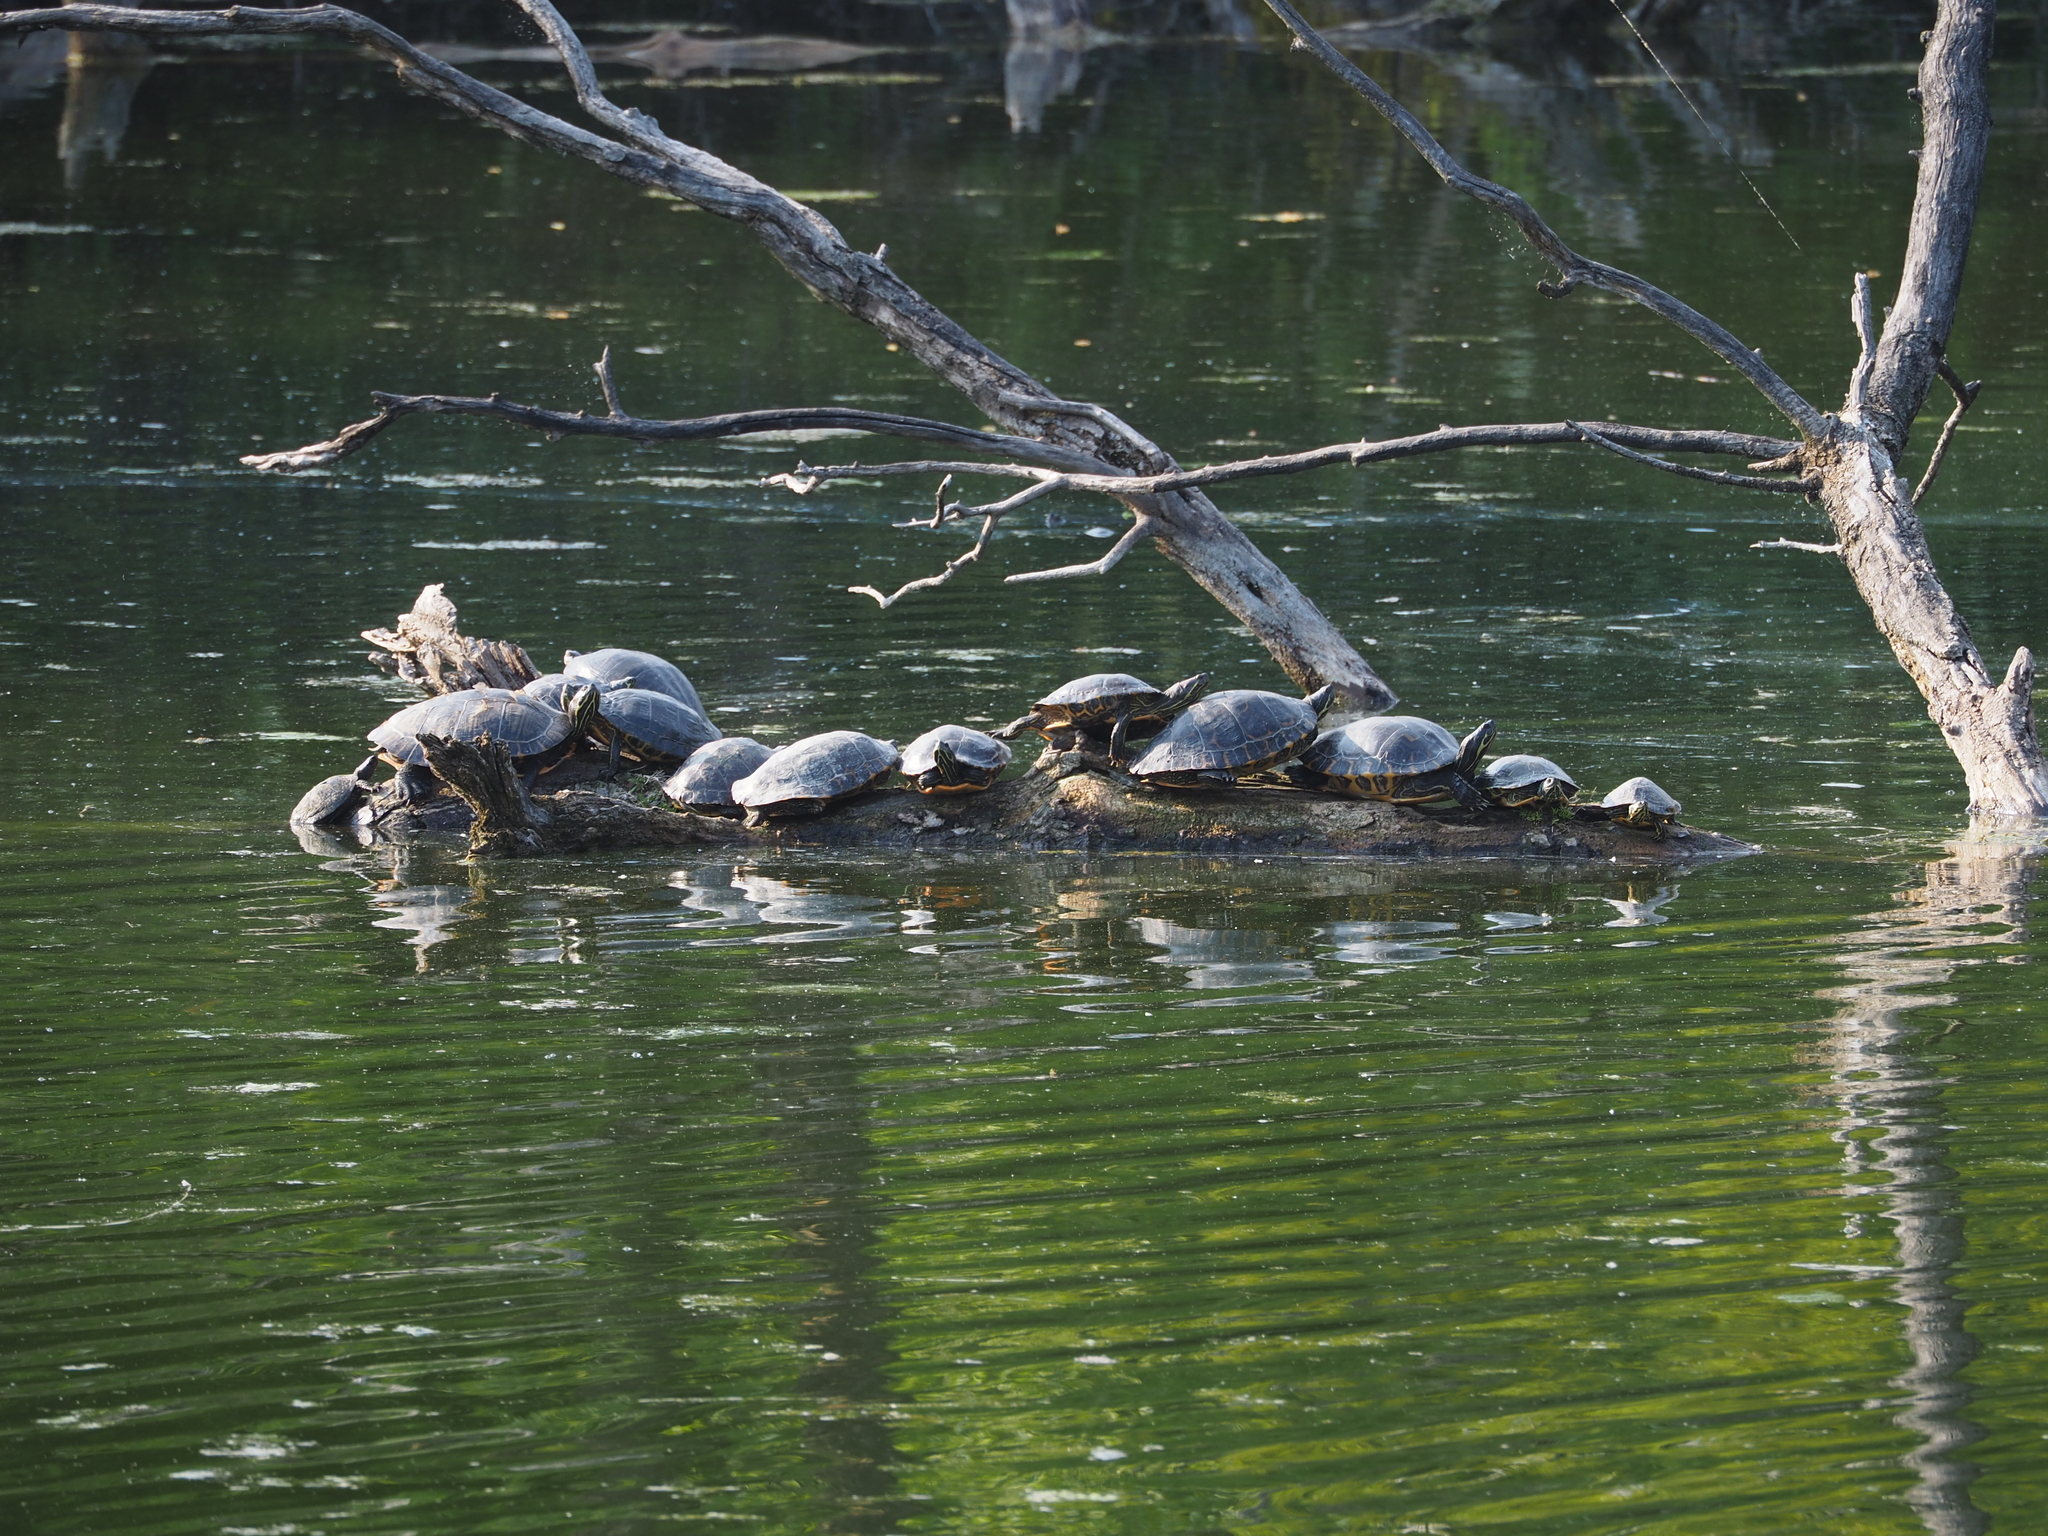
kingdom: Animalia
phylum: Chordata
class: Testudines
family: Emydidae
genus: Trachemys
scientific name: Trachemys scripta
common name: Slider
